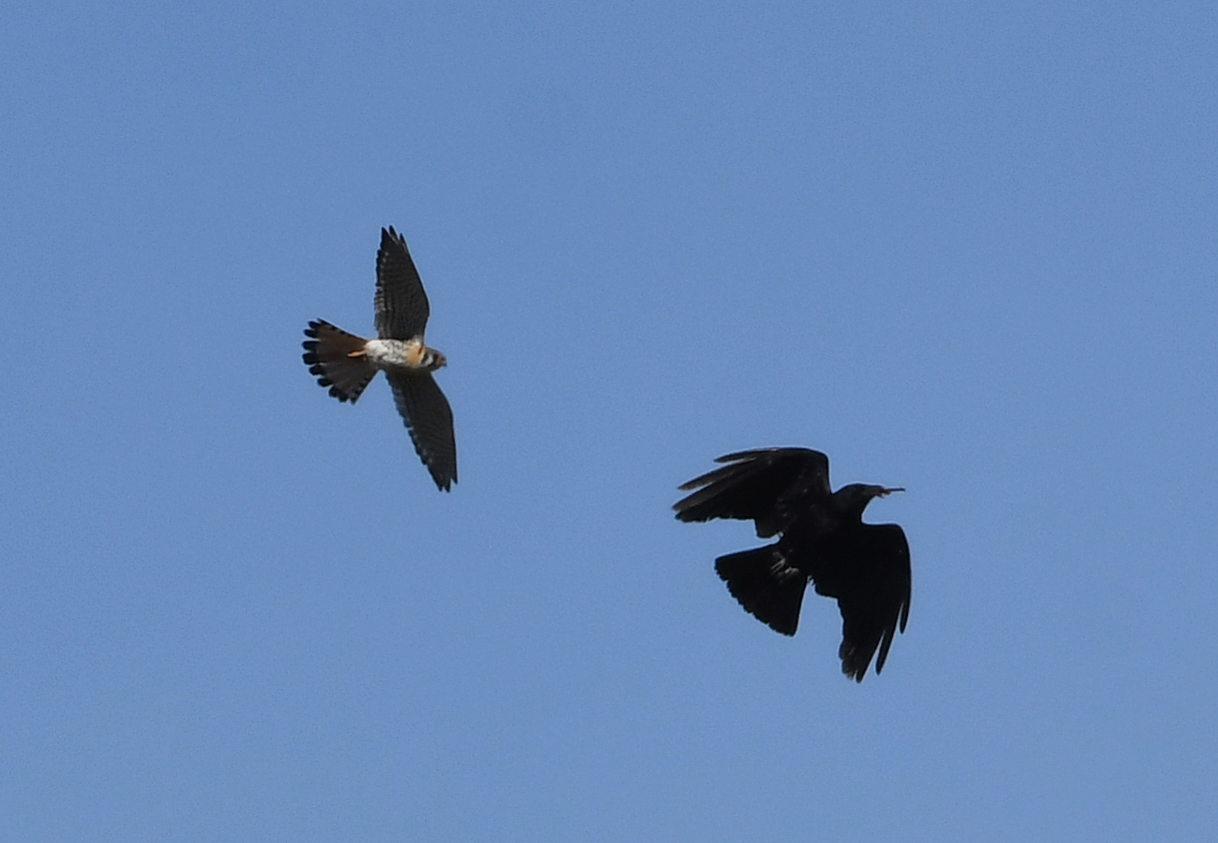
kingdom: Animalia
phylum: Chordata
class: Aves
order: Falconiformes
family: Falconidae
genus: Falco
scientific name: Falco sparverius
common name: American kestrel
